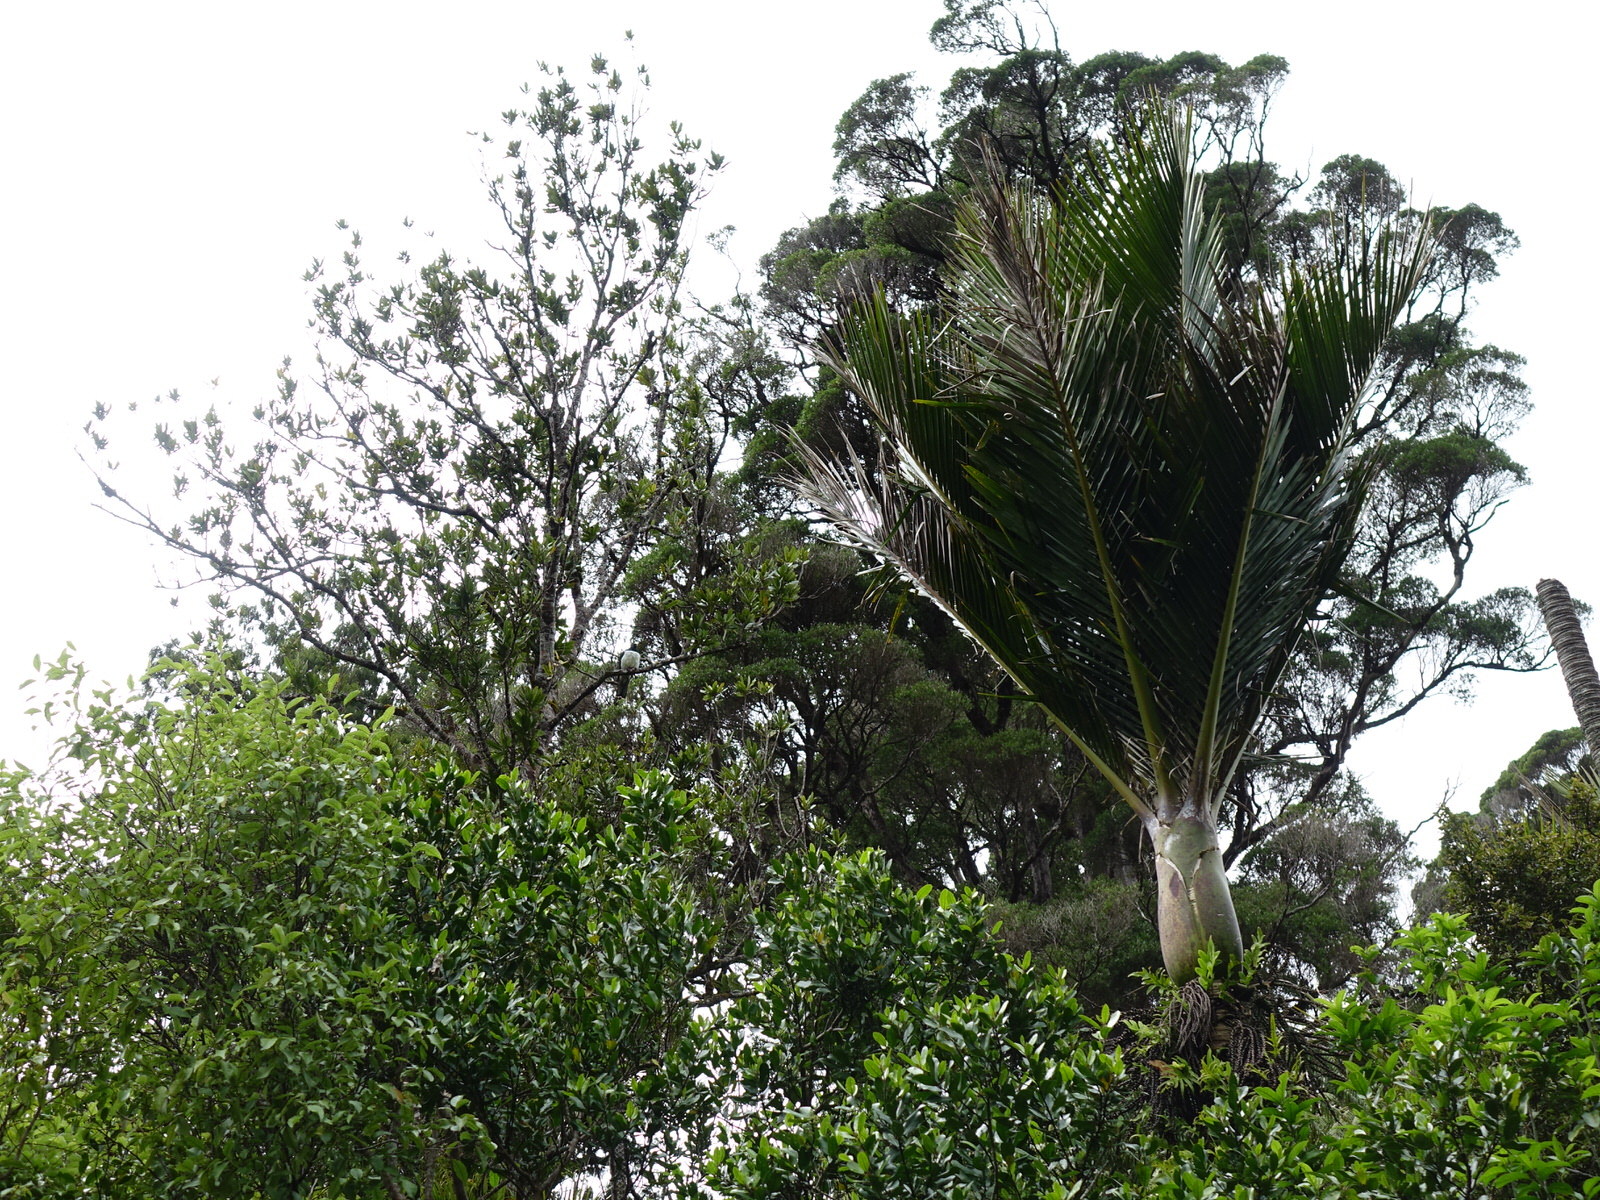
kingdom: Animalia
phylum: Chordata
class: Aves
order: Columbiformes
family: Columbidae
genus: Hemiphaga
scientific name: Hemiphaga novaeseelandiae
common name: New zealand pigeon
